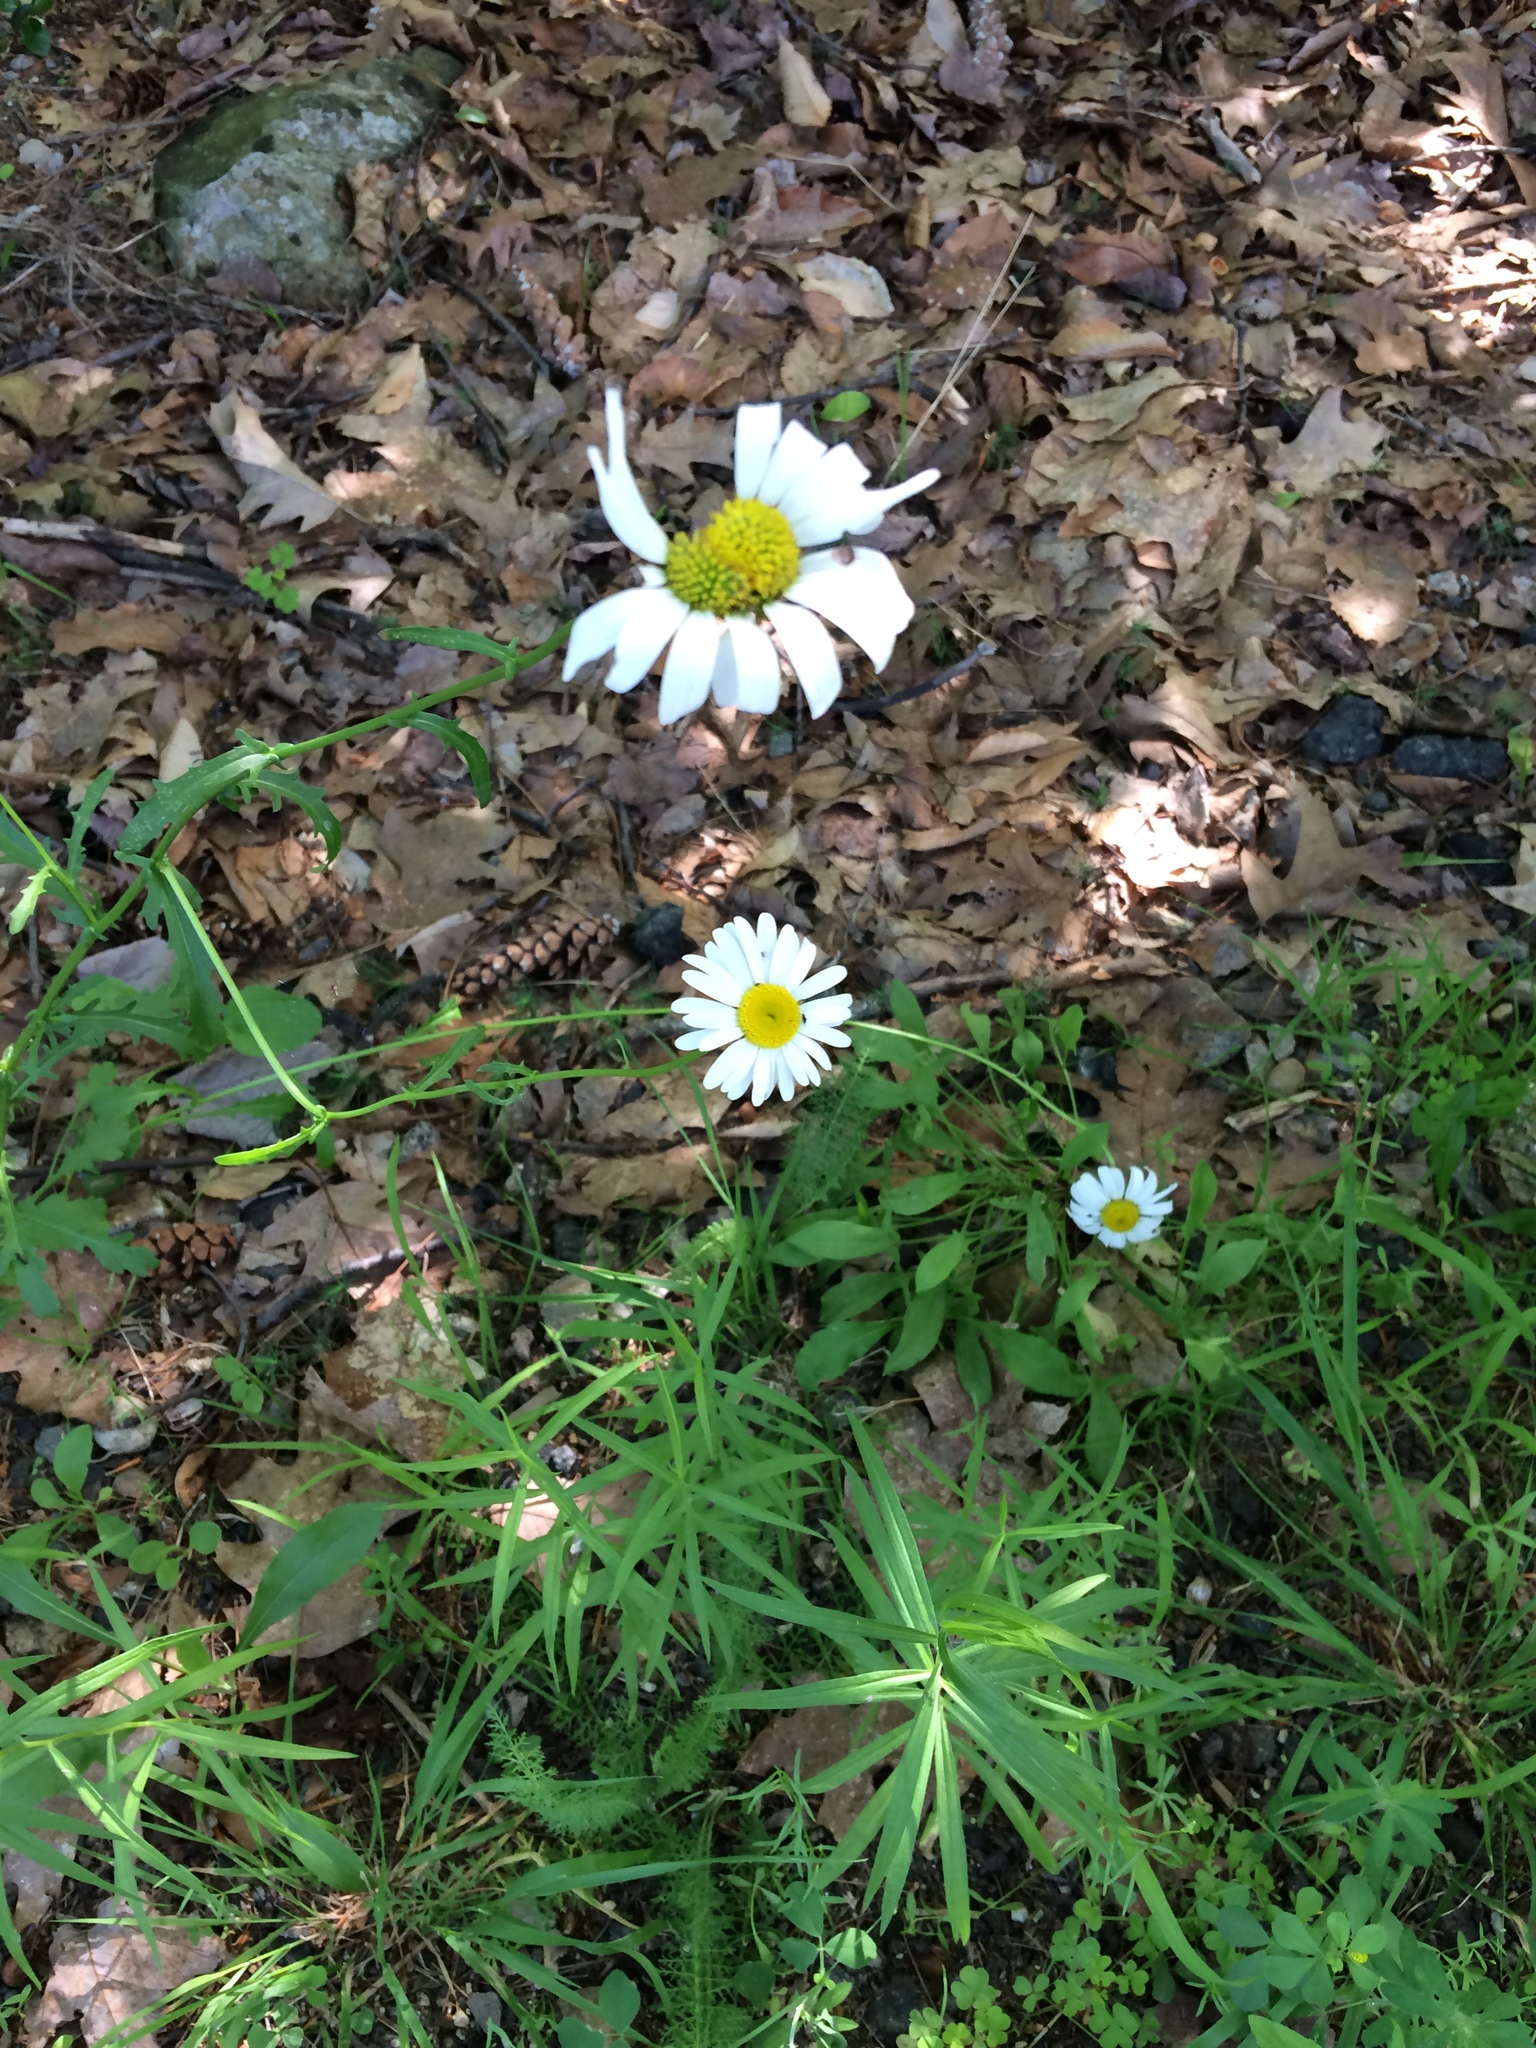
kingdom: Plantae
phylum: Tracheophyta
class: Magnoliopsida
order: Asterales
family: Asteraceae
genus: Leucanthemum
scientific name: Leucanthemum vulgare
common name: Oxeye daisy
